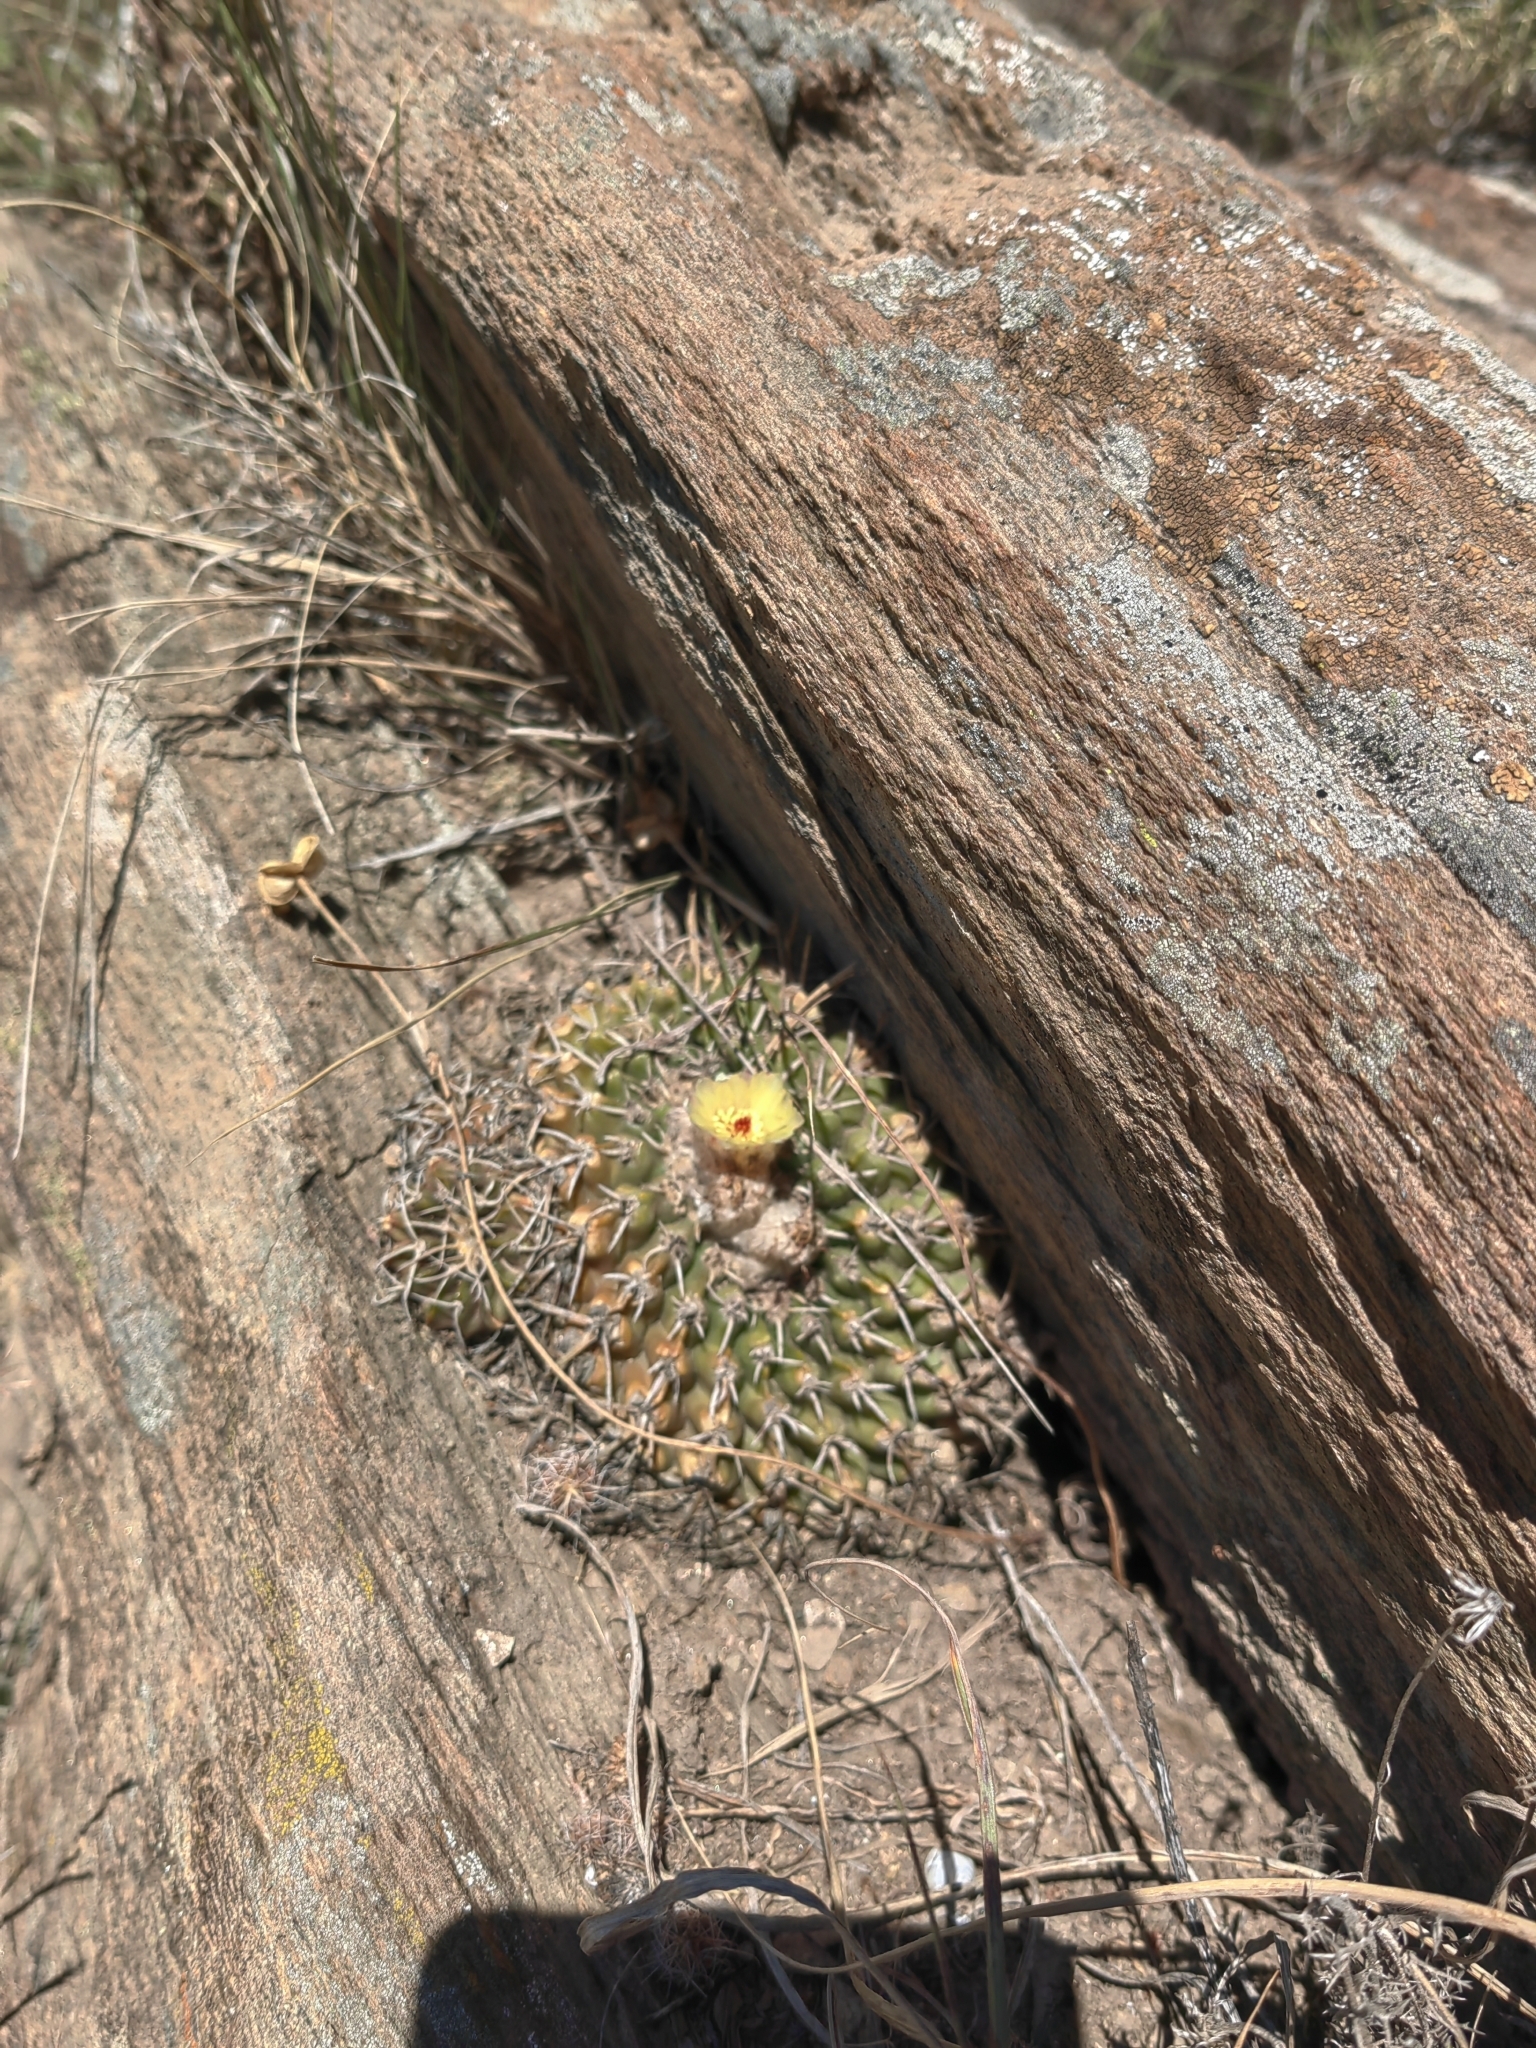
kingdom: Plantae
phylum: Tracheophyta
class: Magnoliopsida
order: Caryophyllales
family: Cactaceae
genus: Parodia
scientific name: Parodia erinacea
